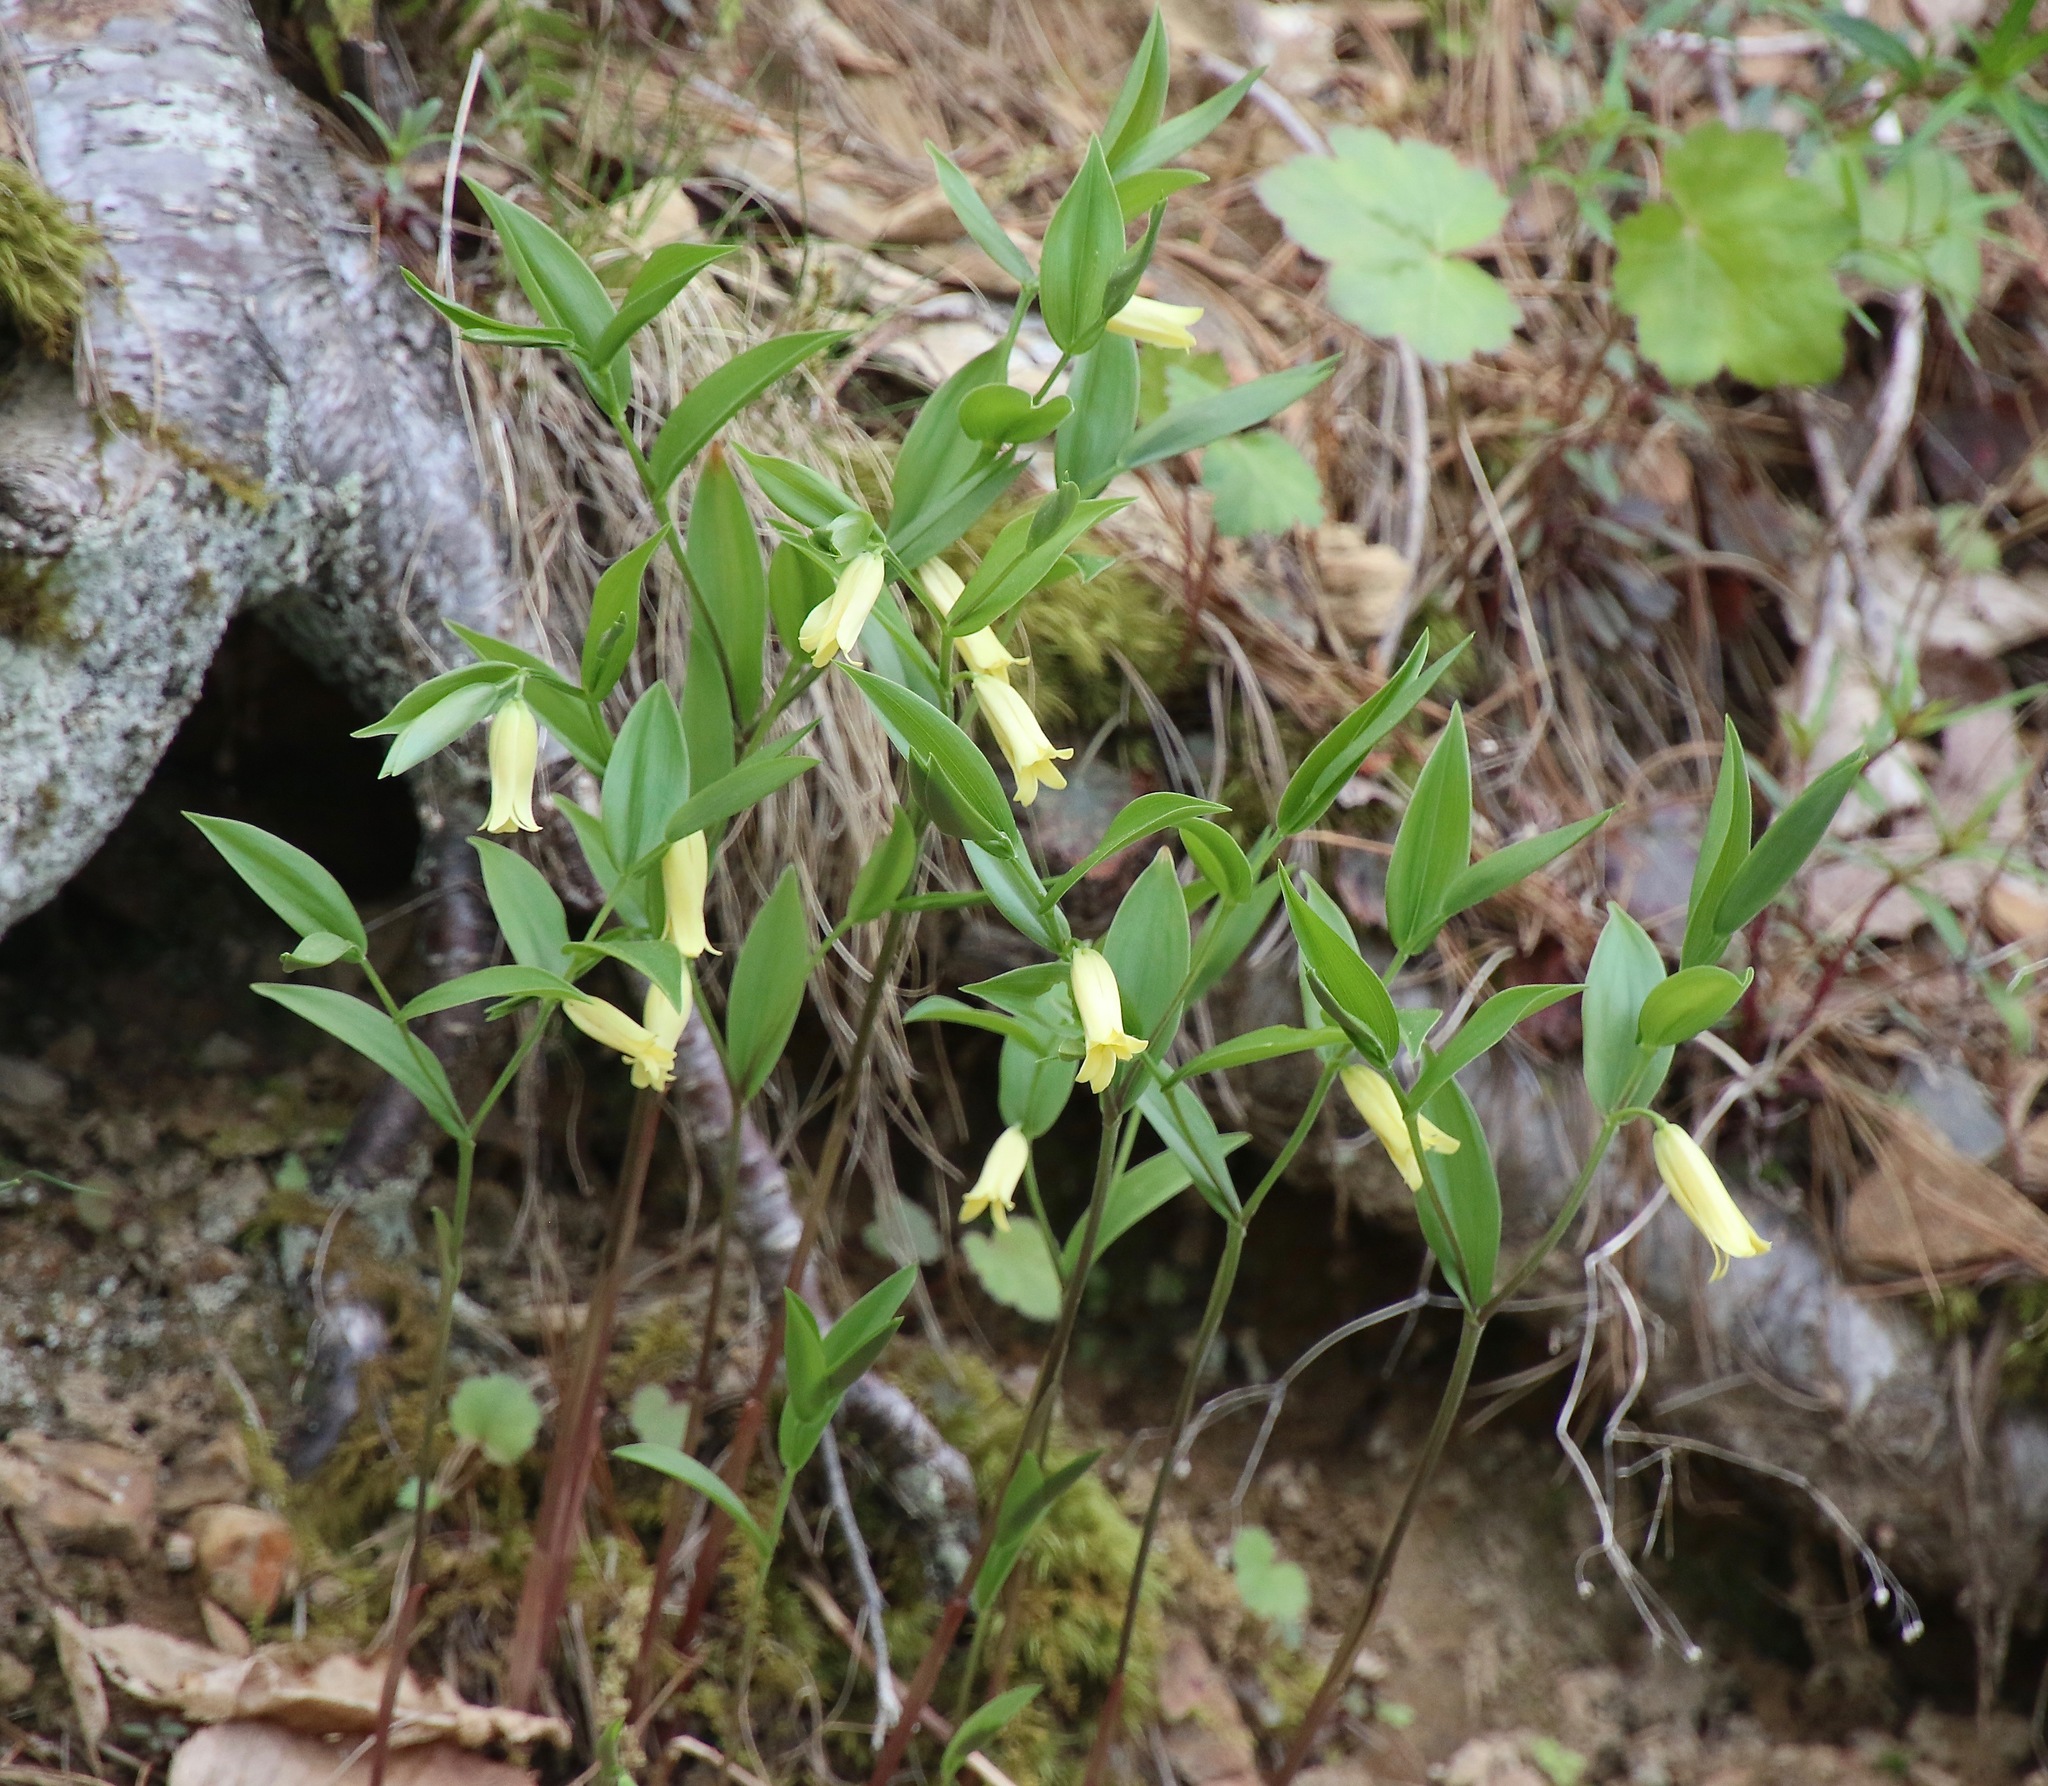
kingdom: Plantae
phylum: Tracheophyta
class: Liliopsida
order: Liliales
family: Colchicaceae
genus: Uvularia
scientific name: Uvularia puberula
